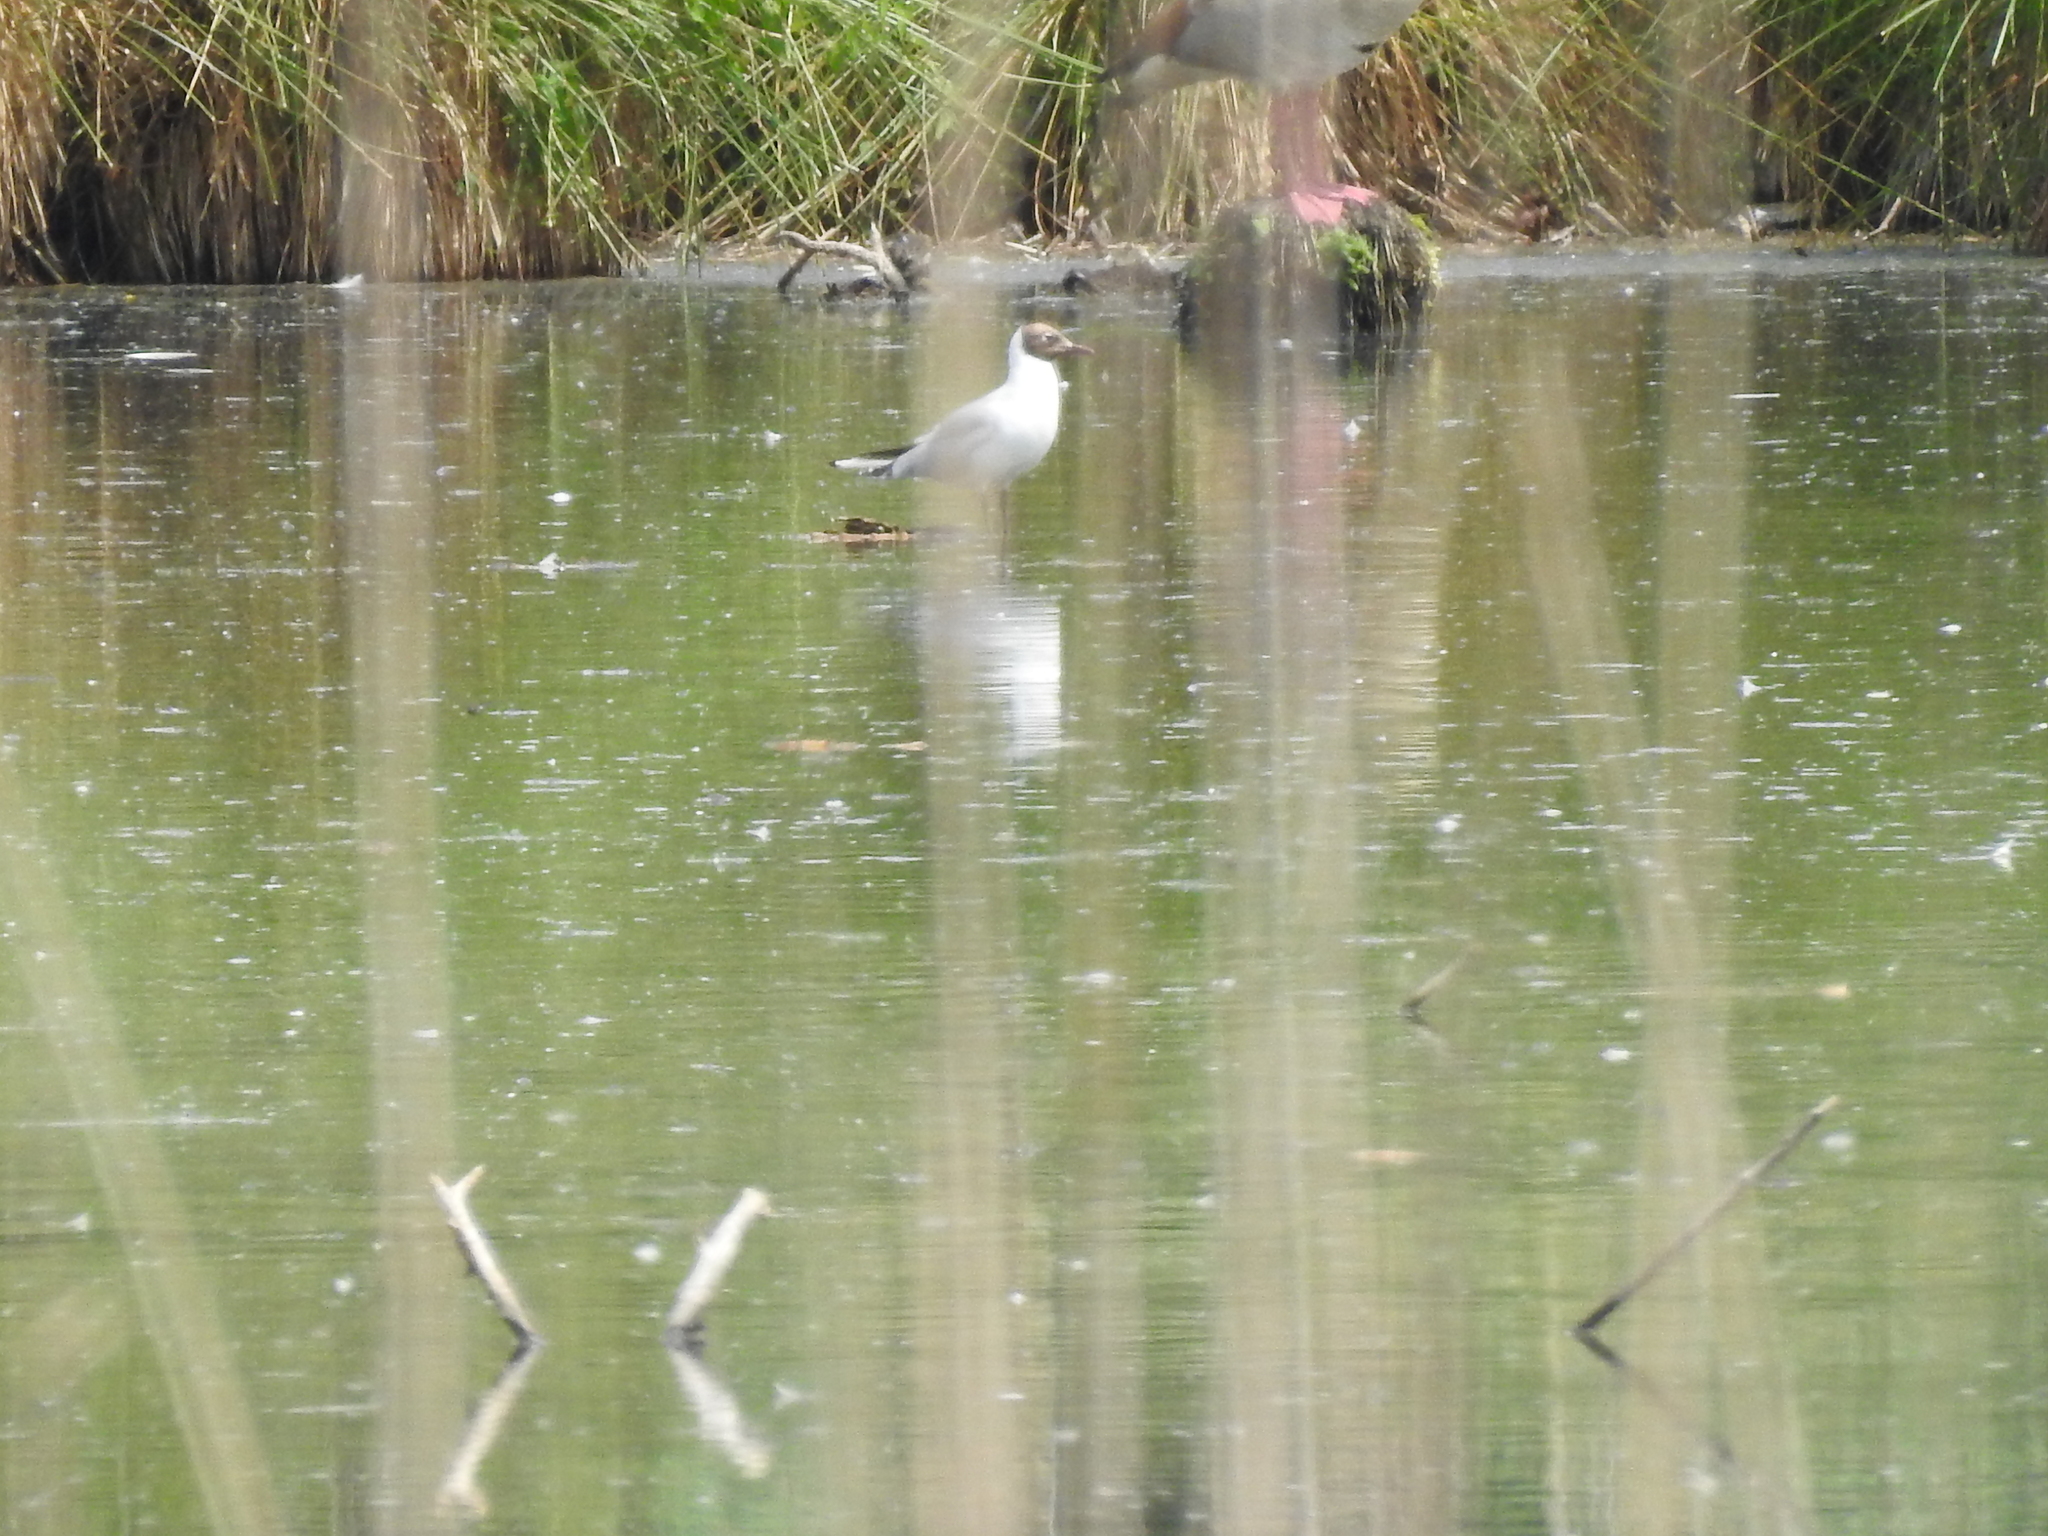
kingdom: Animalia
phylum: Chordata
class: Aves
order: Charadriiformes
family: Laridae
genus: Chroicocephalus
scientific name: Chroicocephalus ridibundus
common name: Black-headed gull
